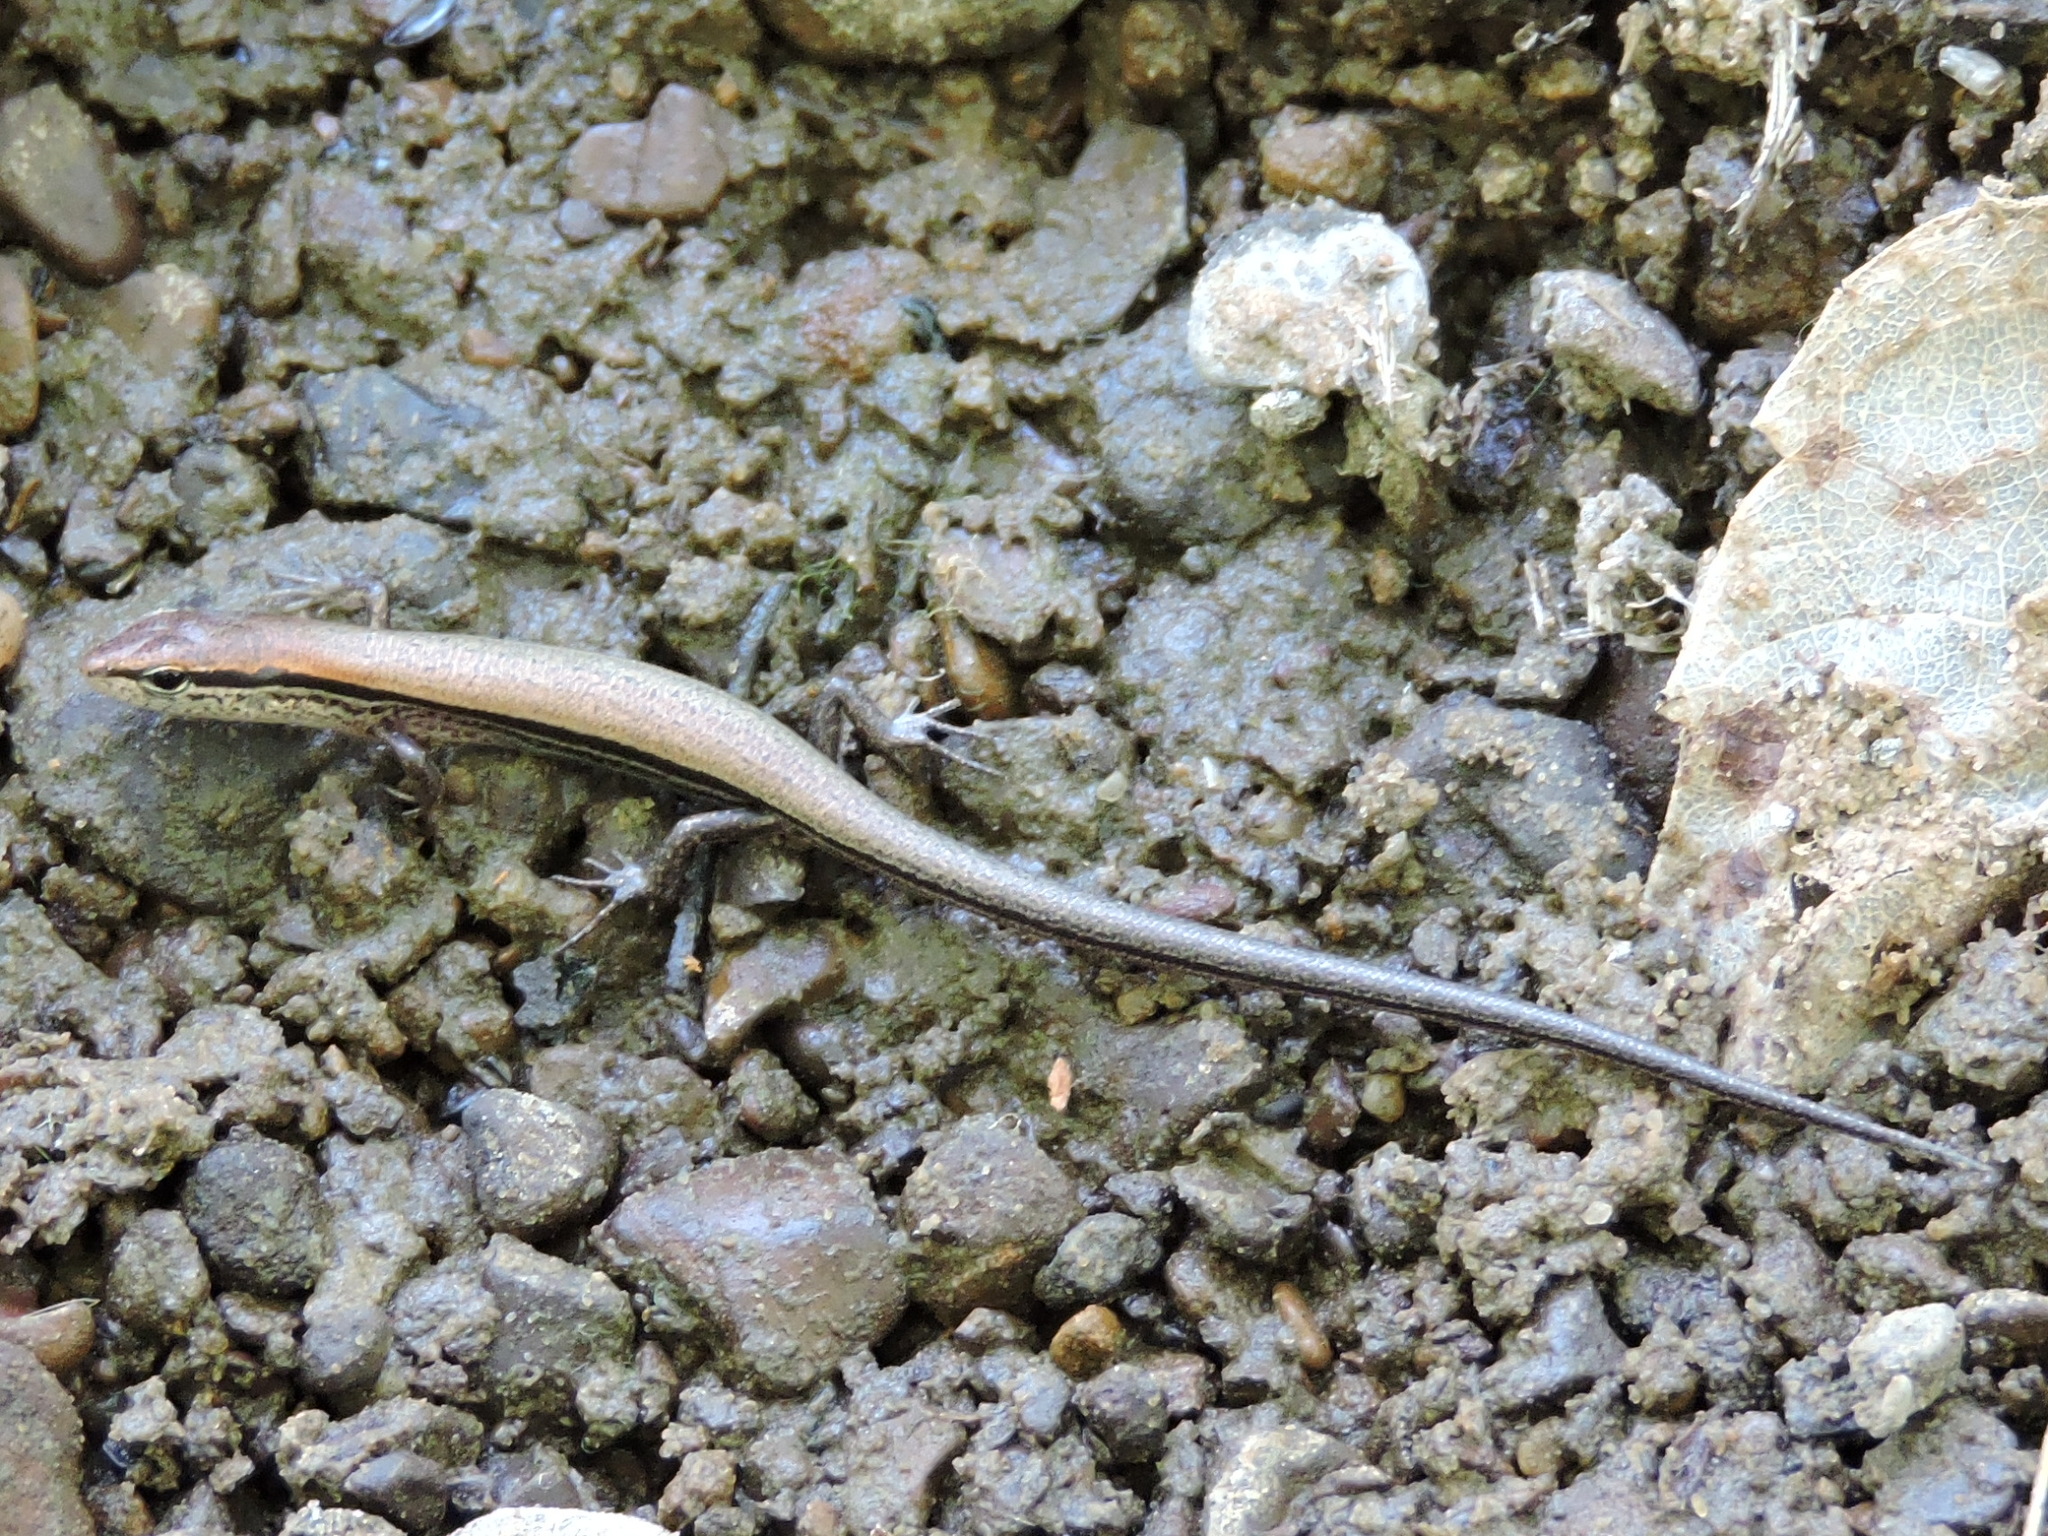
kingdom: Animalia
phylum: Chordata
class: Squamata
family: Scincidae
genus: Scincella
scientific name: Scincella lateralis
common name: Ground skink
